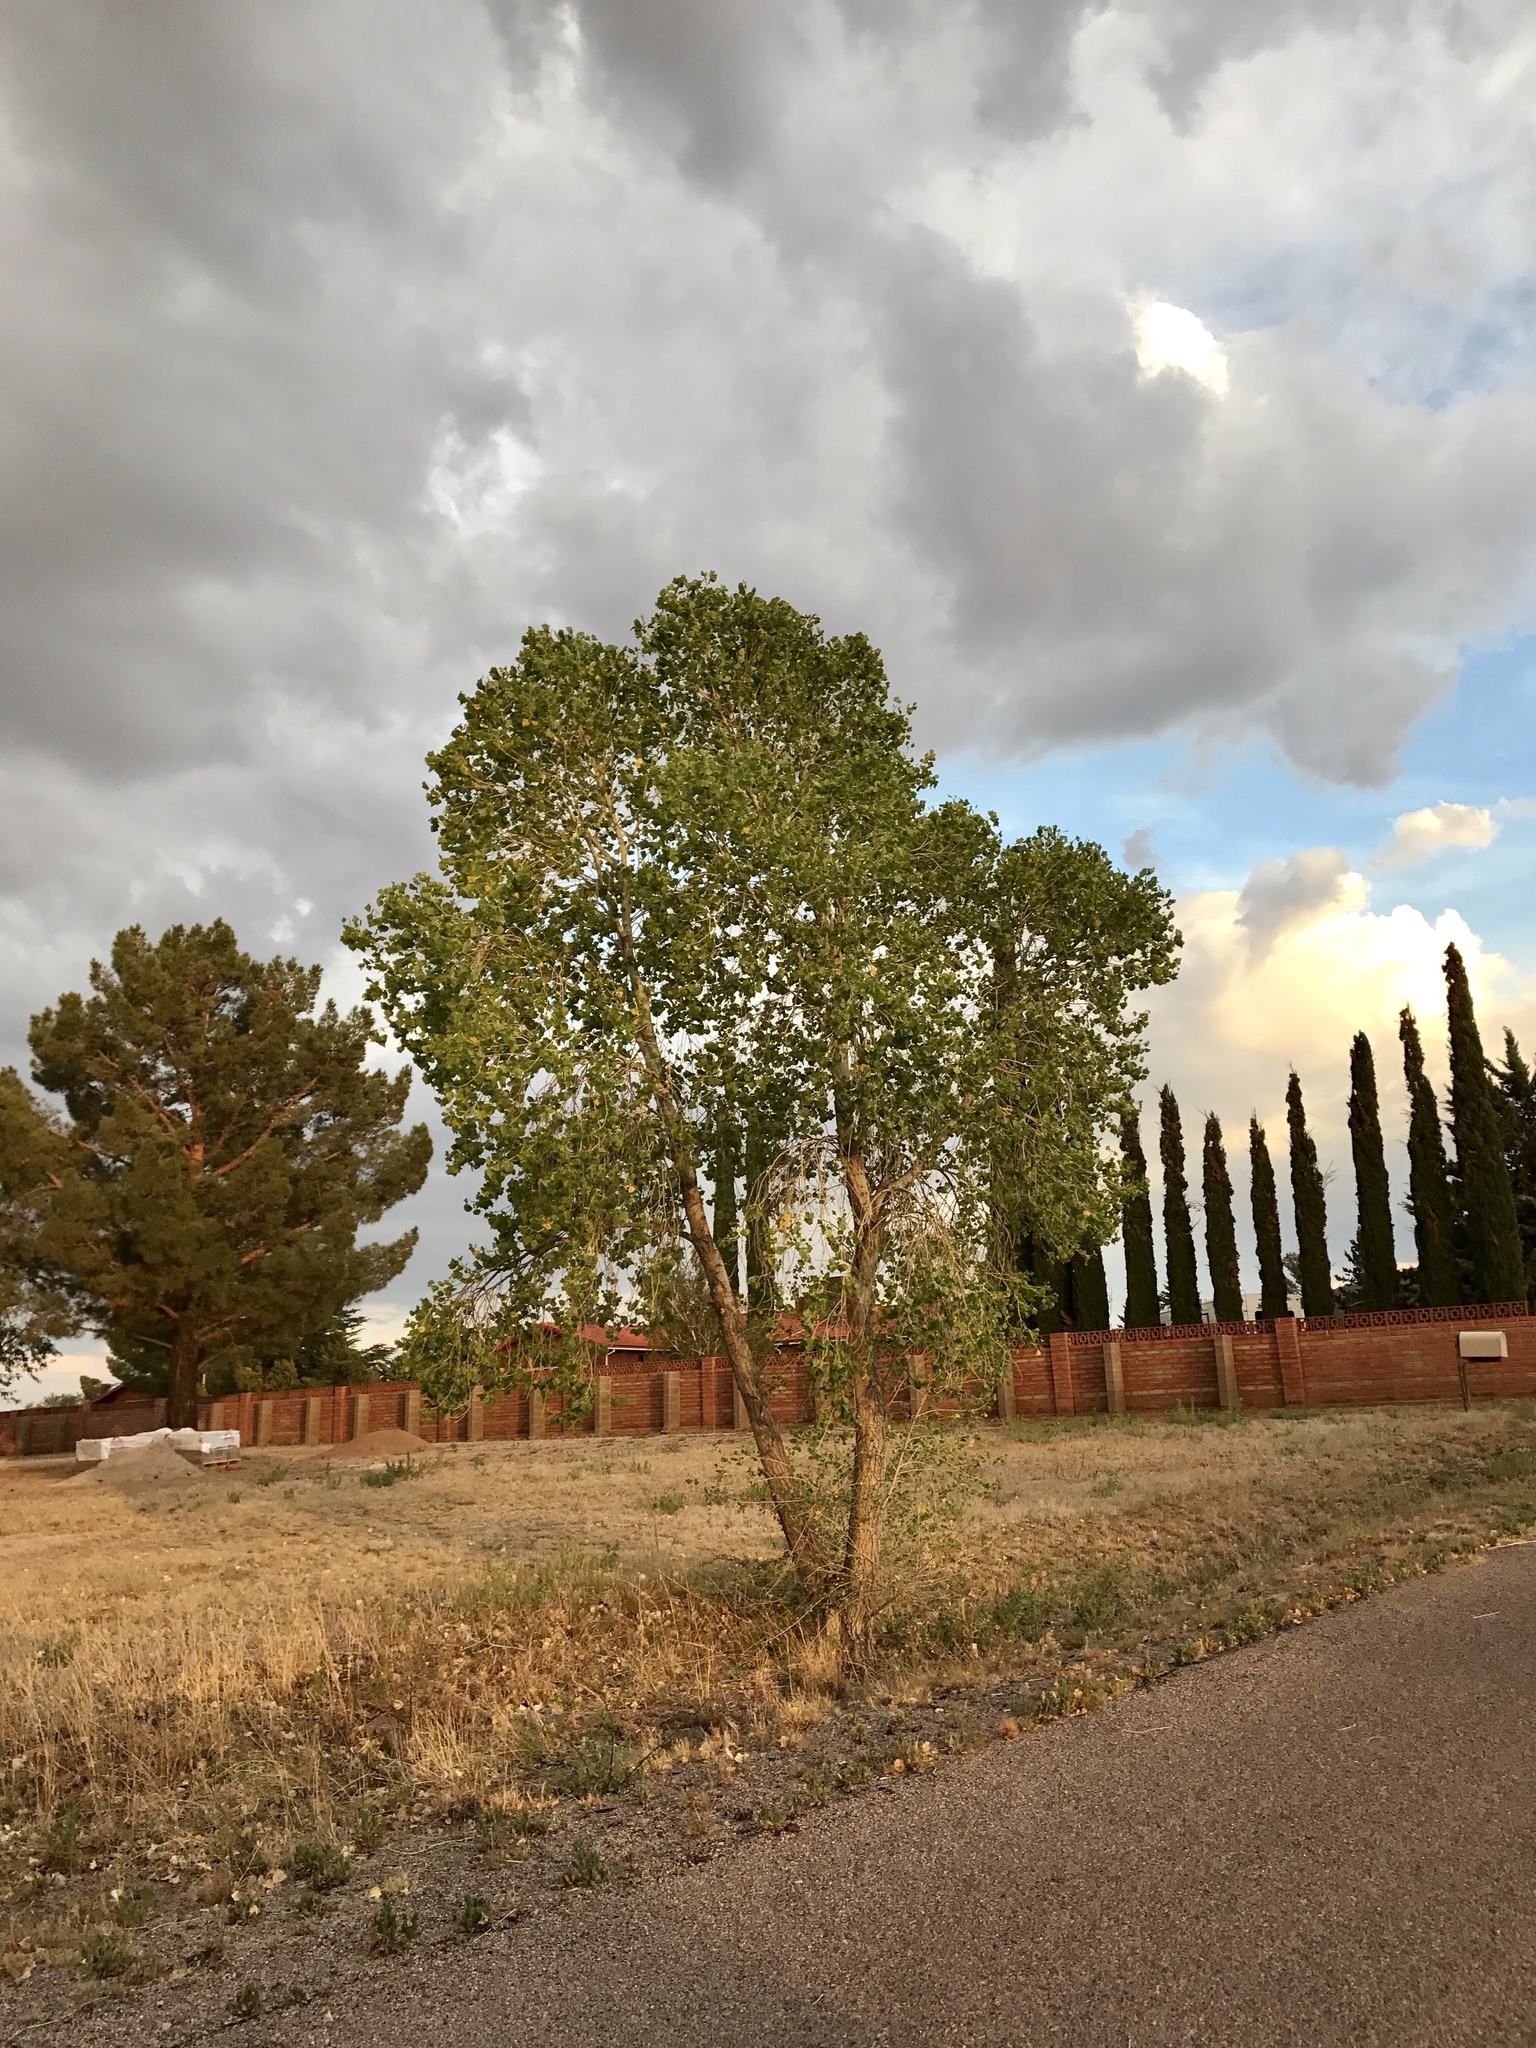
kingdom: Plantae
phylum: Tracheophyta
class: Magnoliopsida
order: Malpighiales
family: Salicaceae
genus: Populus
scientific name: Populus fremontii
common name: Fremont's cottonwood
